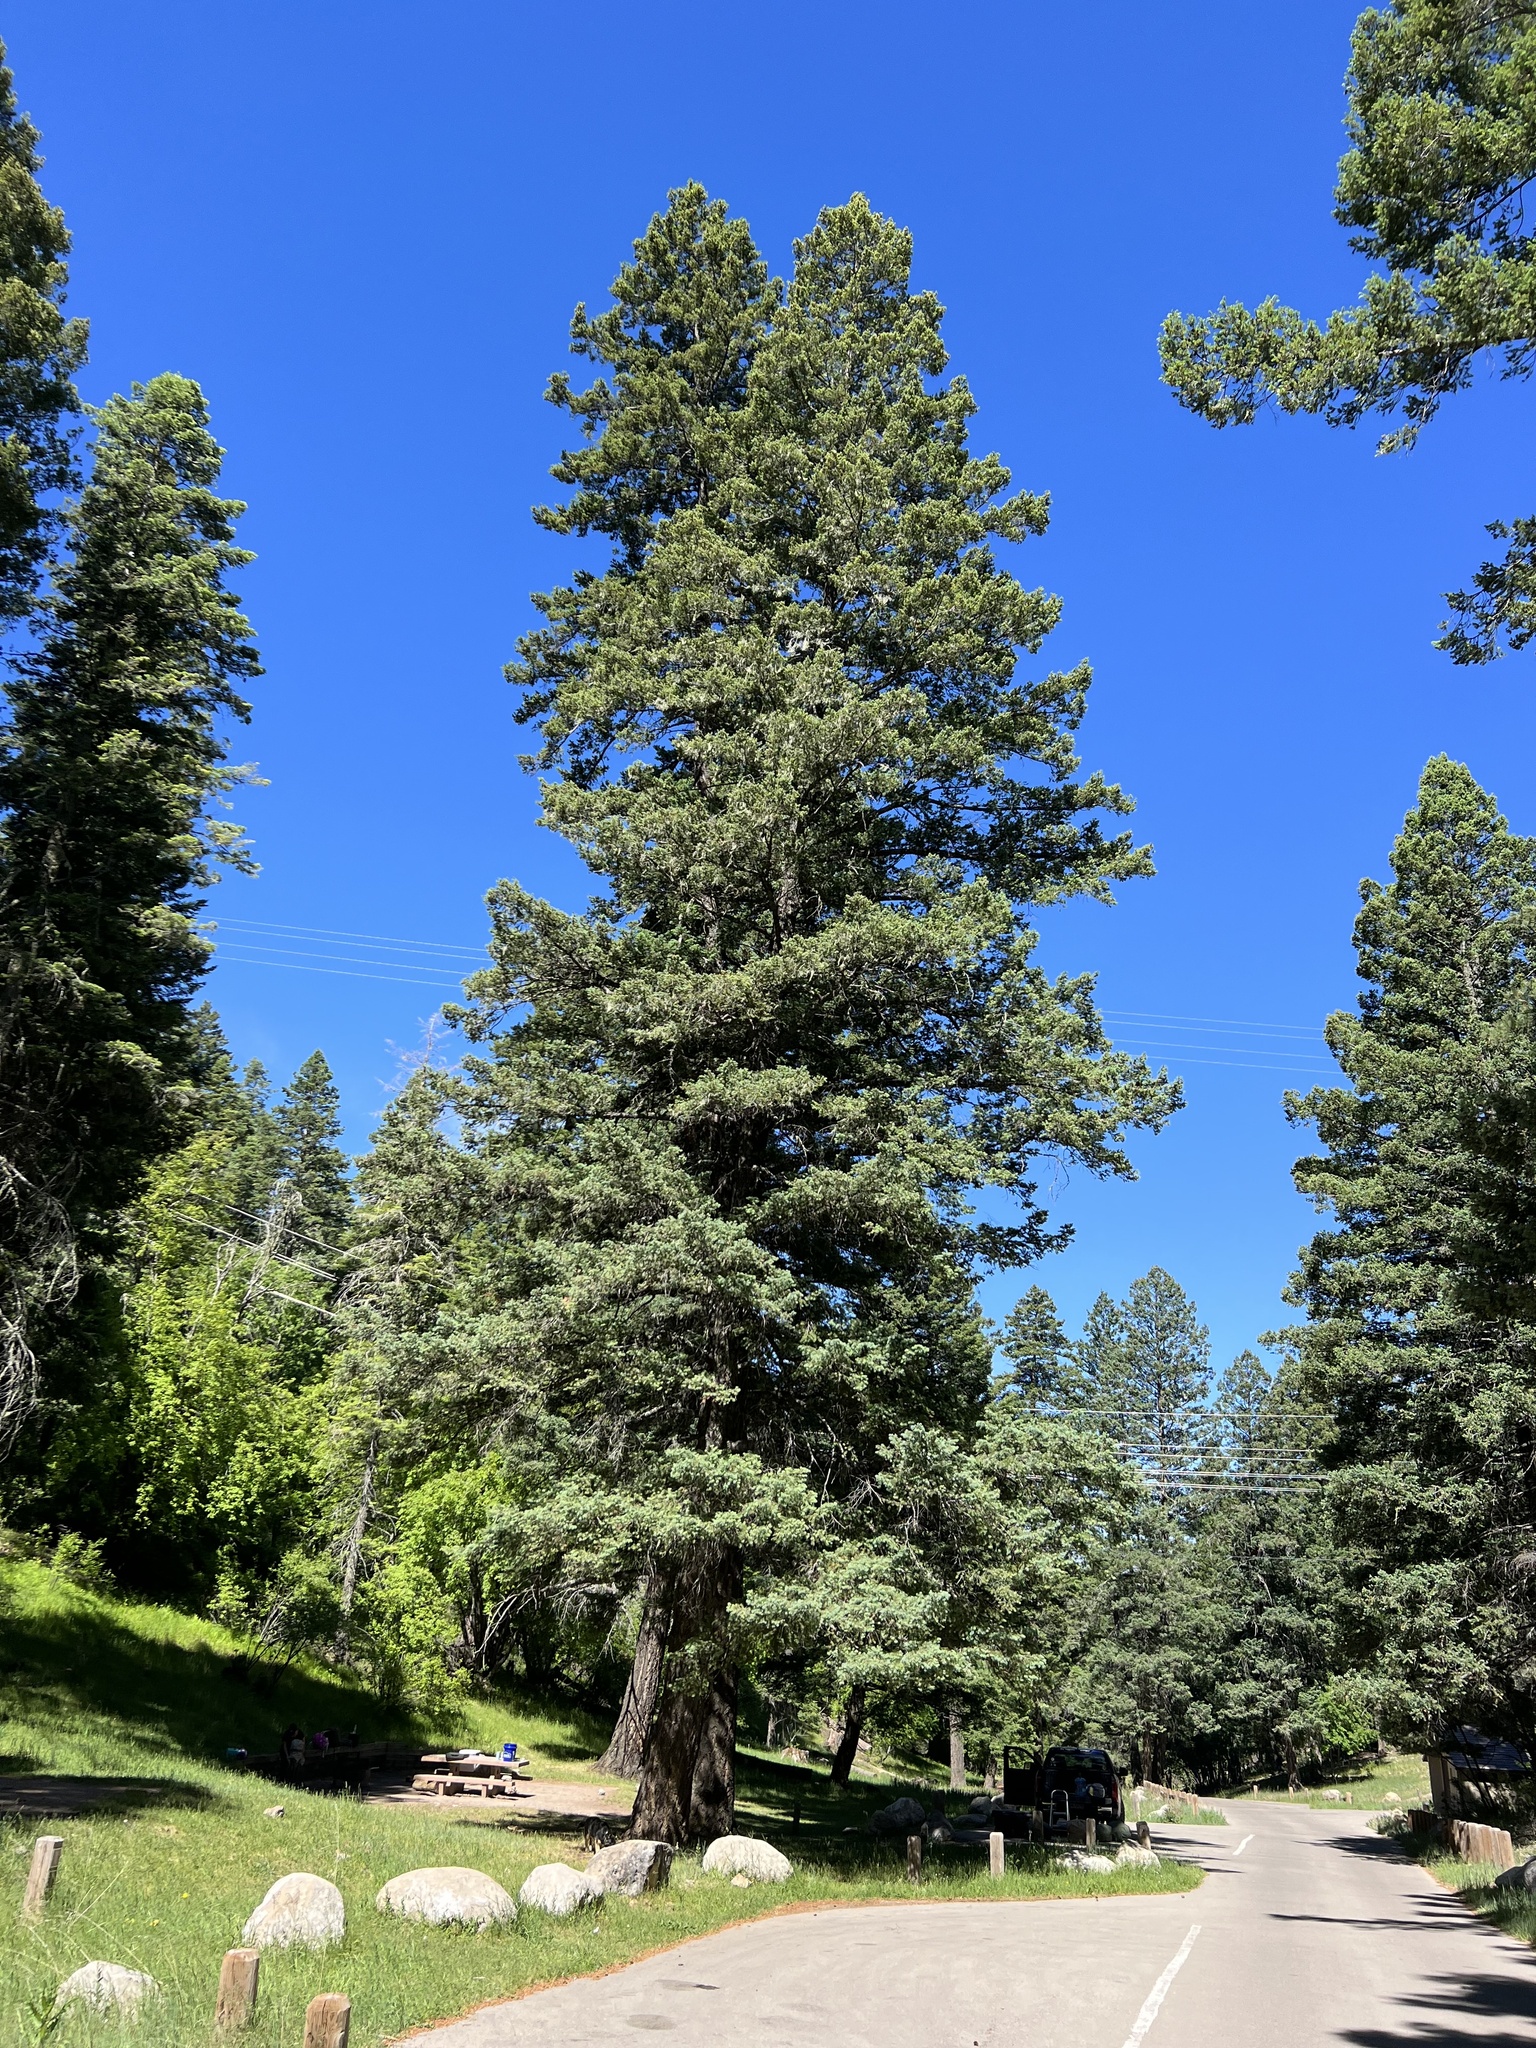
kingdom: Plantae
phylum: Tracheophyta
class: Pinopsida
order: Pinales
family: Pinaceae
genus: Pseudotsuga
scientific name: Pseudotsuga menziesii
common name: Douglas fir
